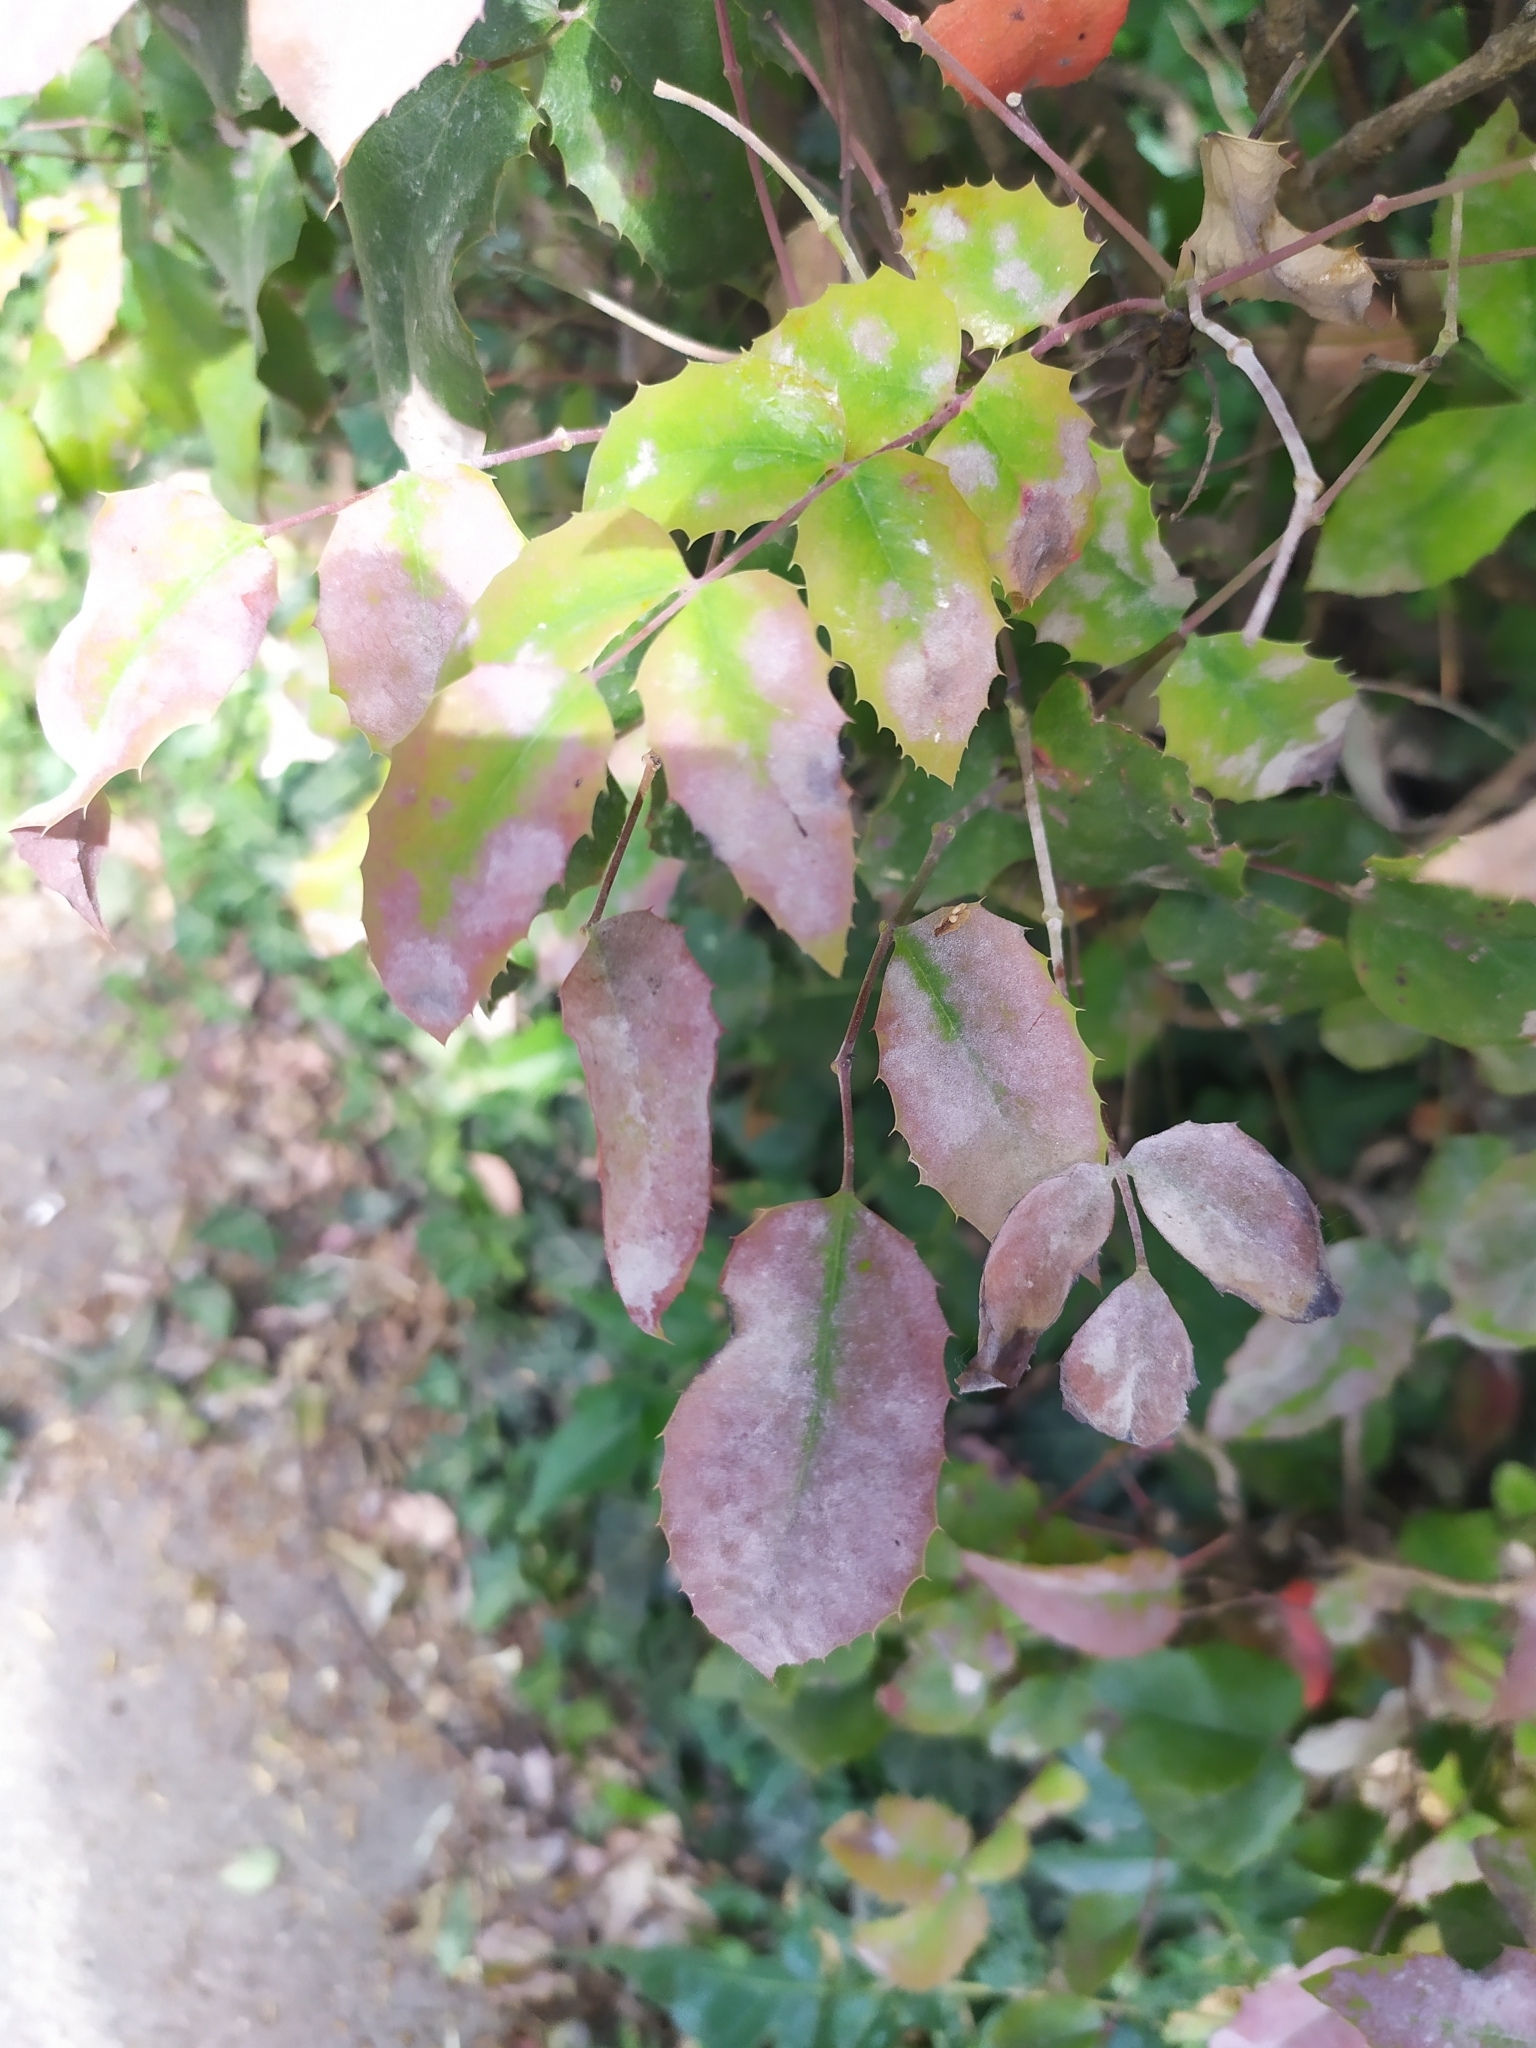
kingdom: Fungi
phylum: Ascomycota
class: Leotiomycetes
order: Helotiales
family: Erysiphaceae
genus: Erysiphe
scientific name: Erysiphe berberidis
